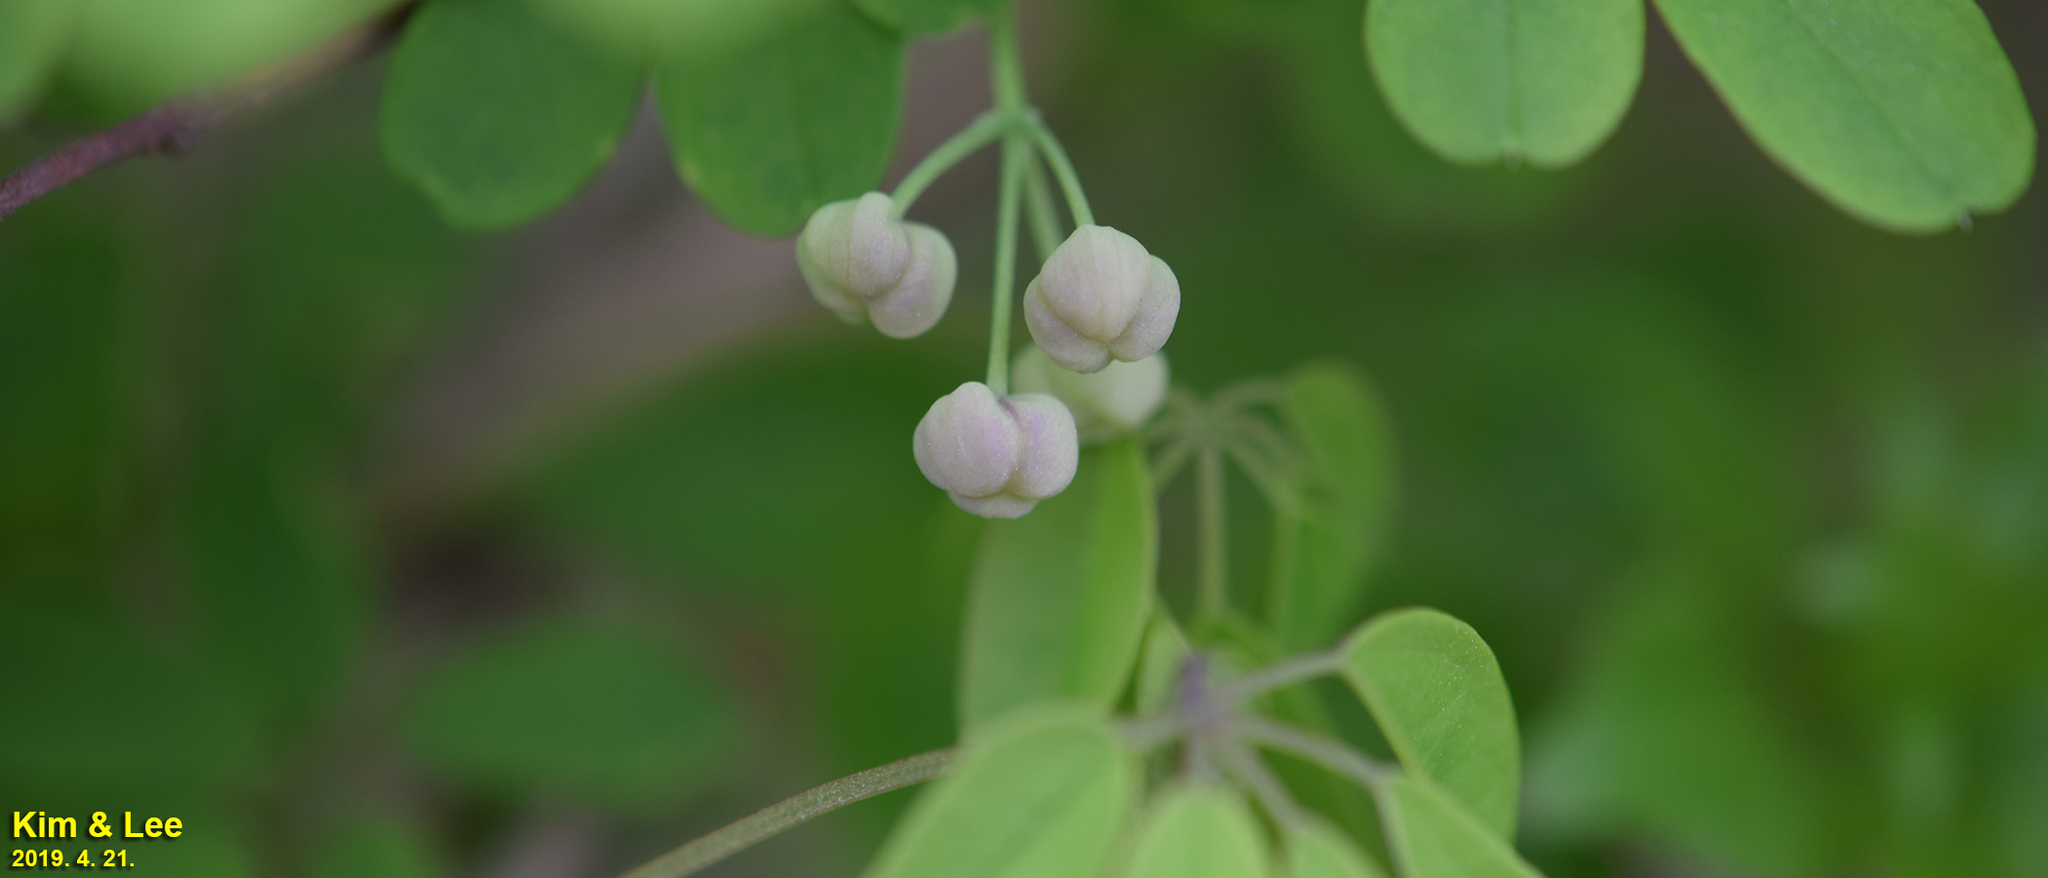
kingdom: Plantae
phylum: Tracheophyta
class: Magnoliopsida
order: Ranunculales
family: Lardizabalaceae
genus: Akebia
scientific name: Akebia quinata
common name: Five-leaf akebia
